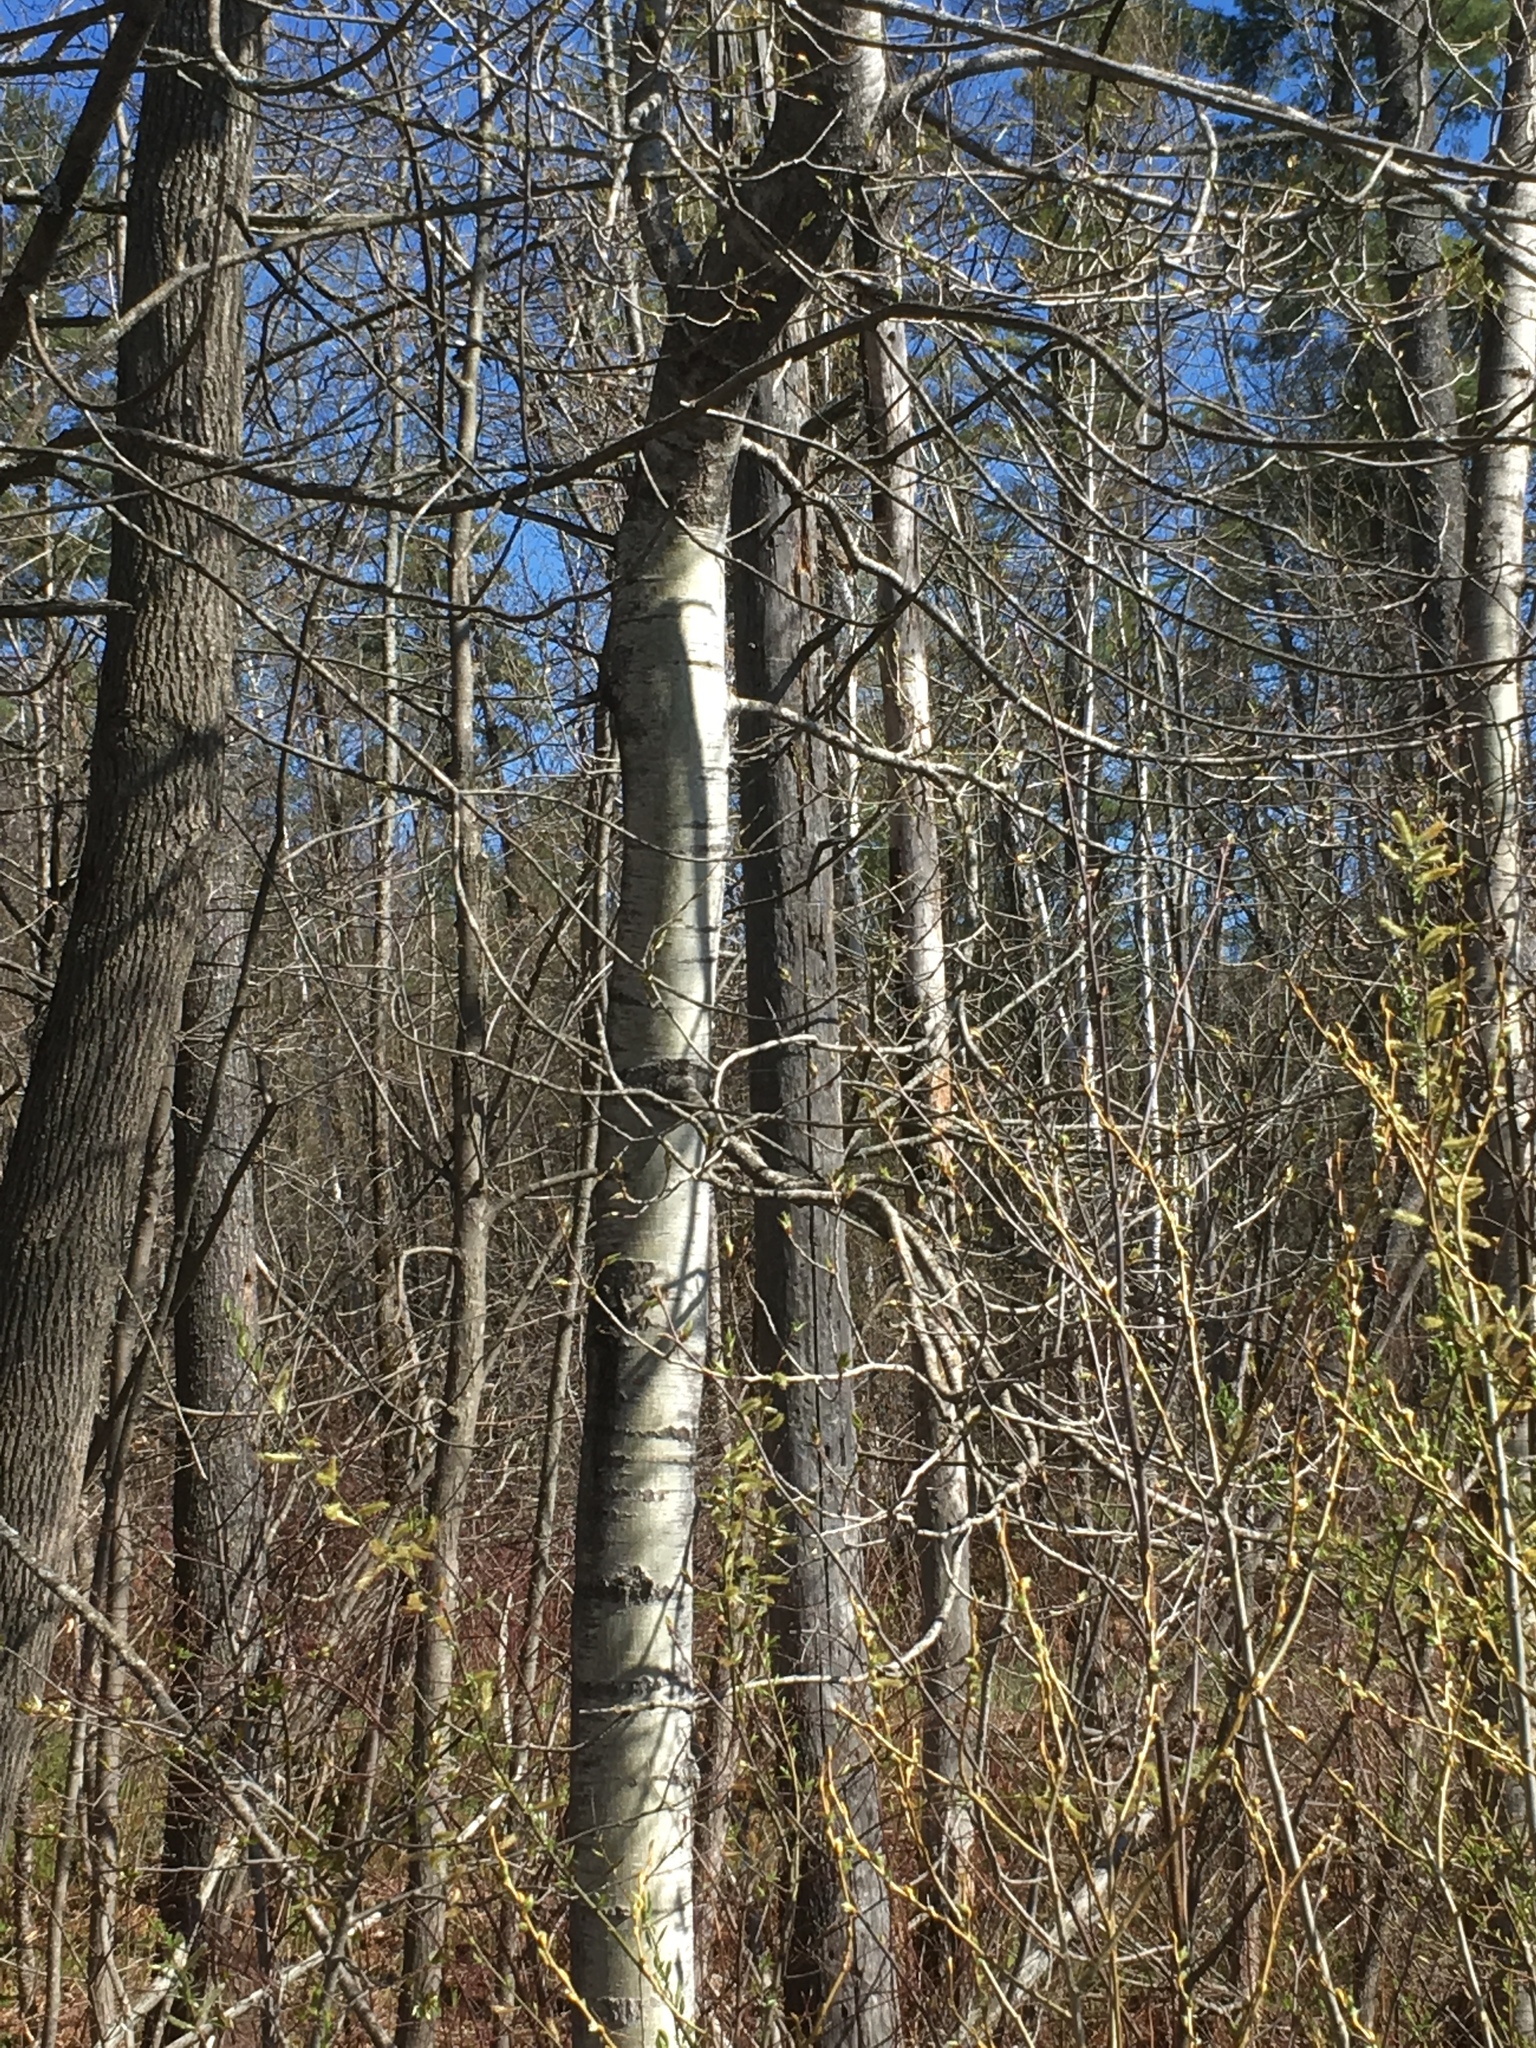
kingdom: Plantae
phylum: Tracheophyta
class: Magnoliopsida
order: Malpighiales
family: Salicaceae
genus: Populus
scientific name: Populus tremuloides
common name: Quaking aspen
